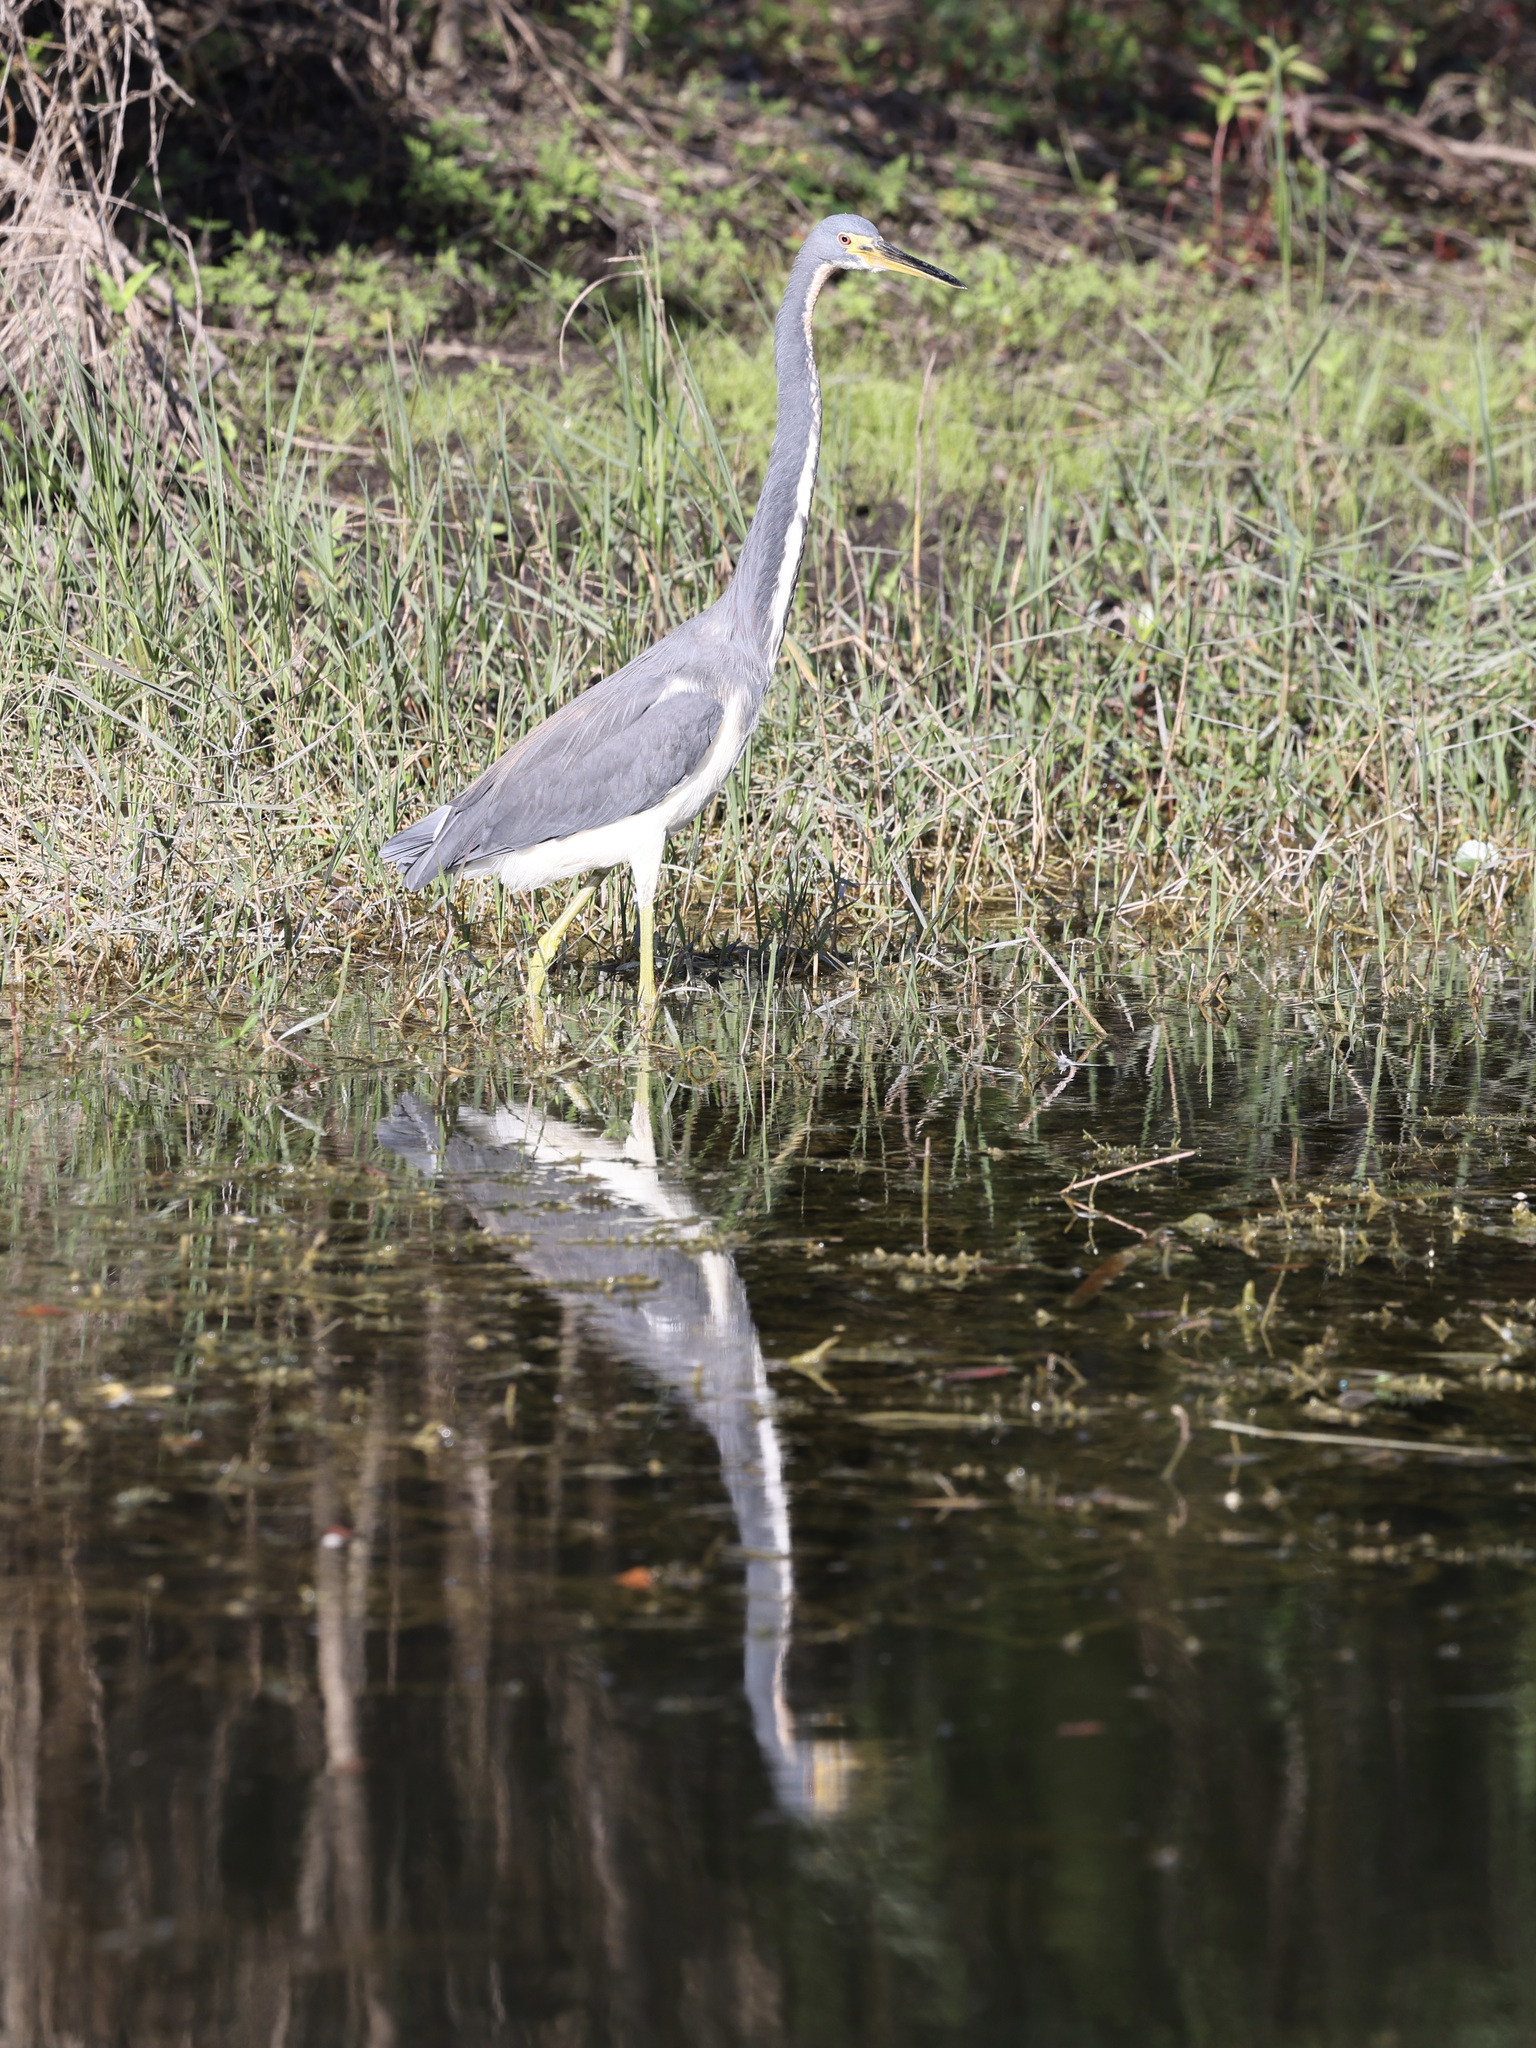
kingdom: Animalia
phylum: Chordata
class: Aves
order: Pelecaniformes
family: Ardeidae
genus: Egretta
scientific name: Egretta tricolor
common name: Tricolored heron
